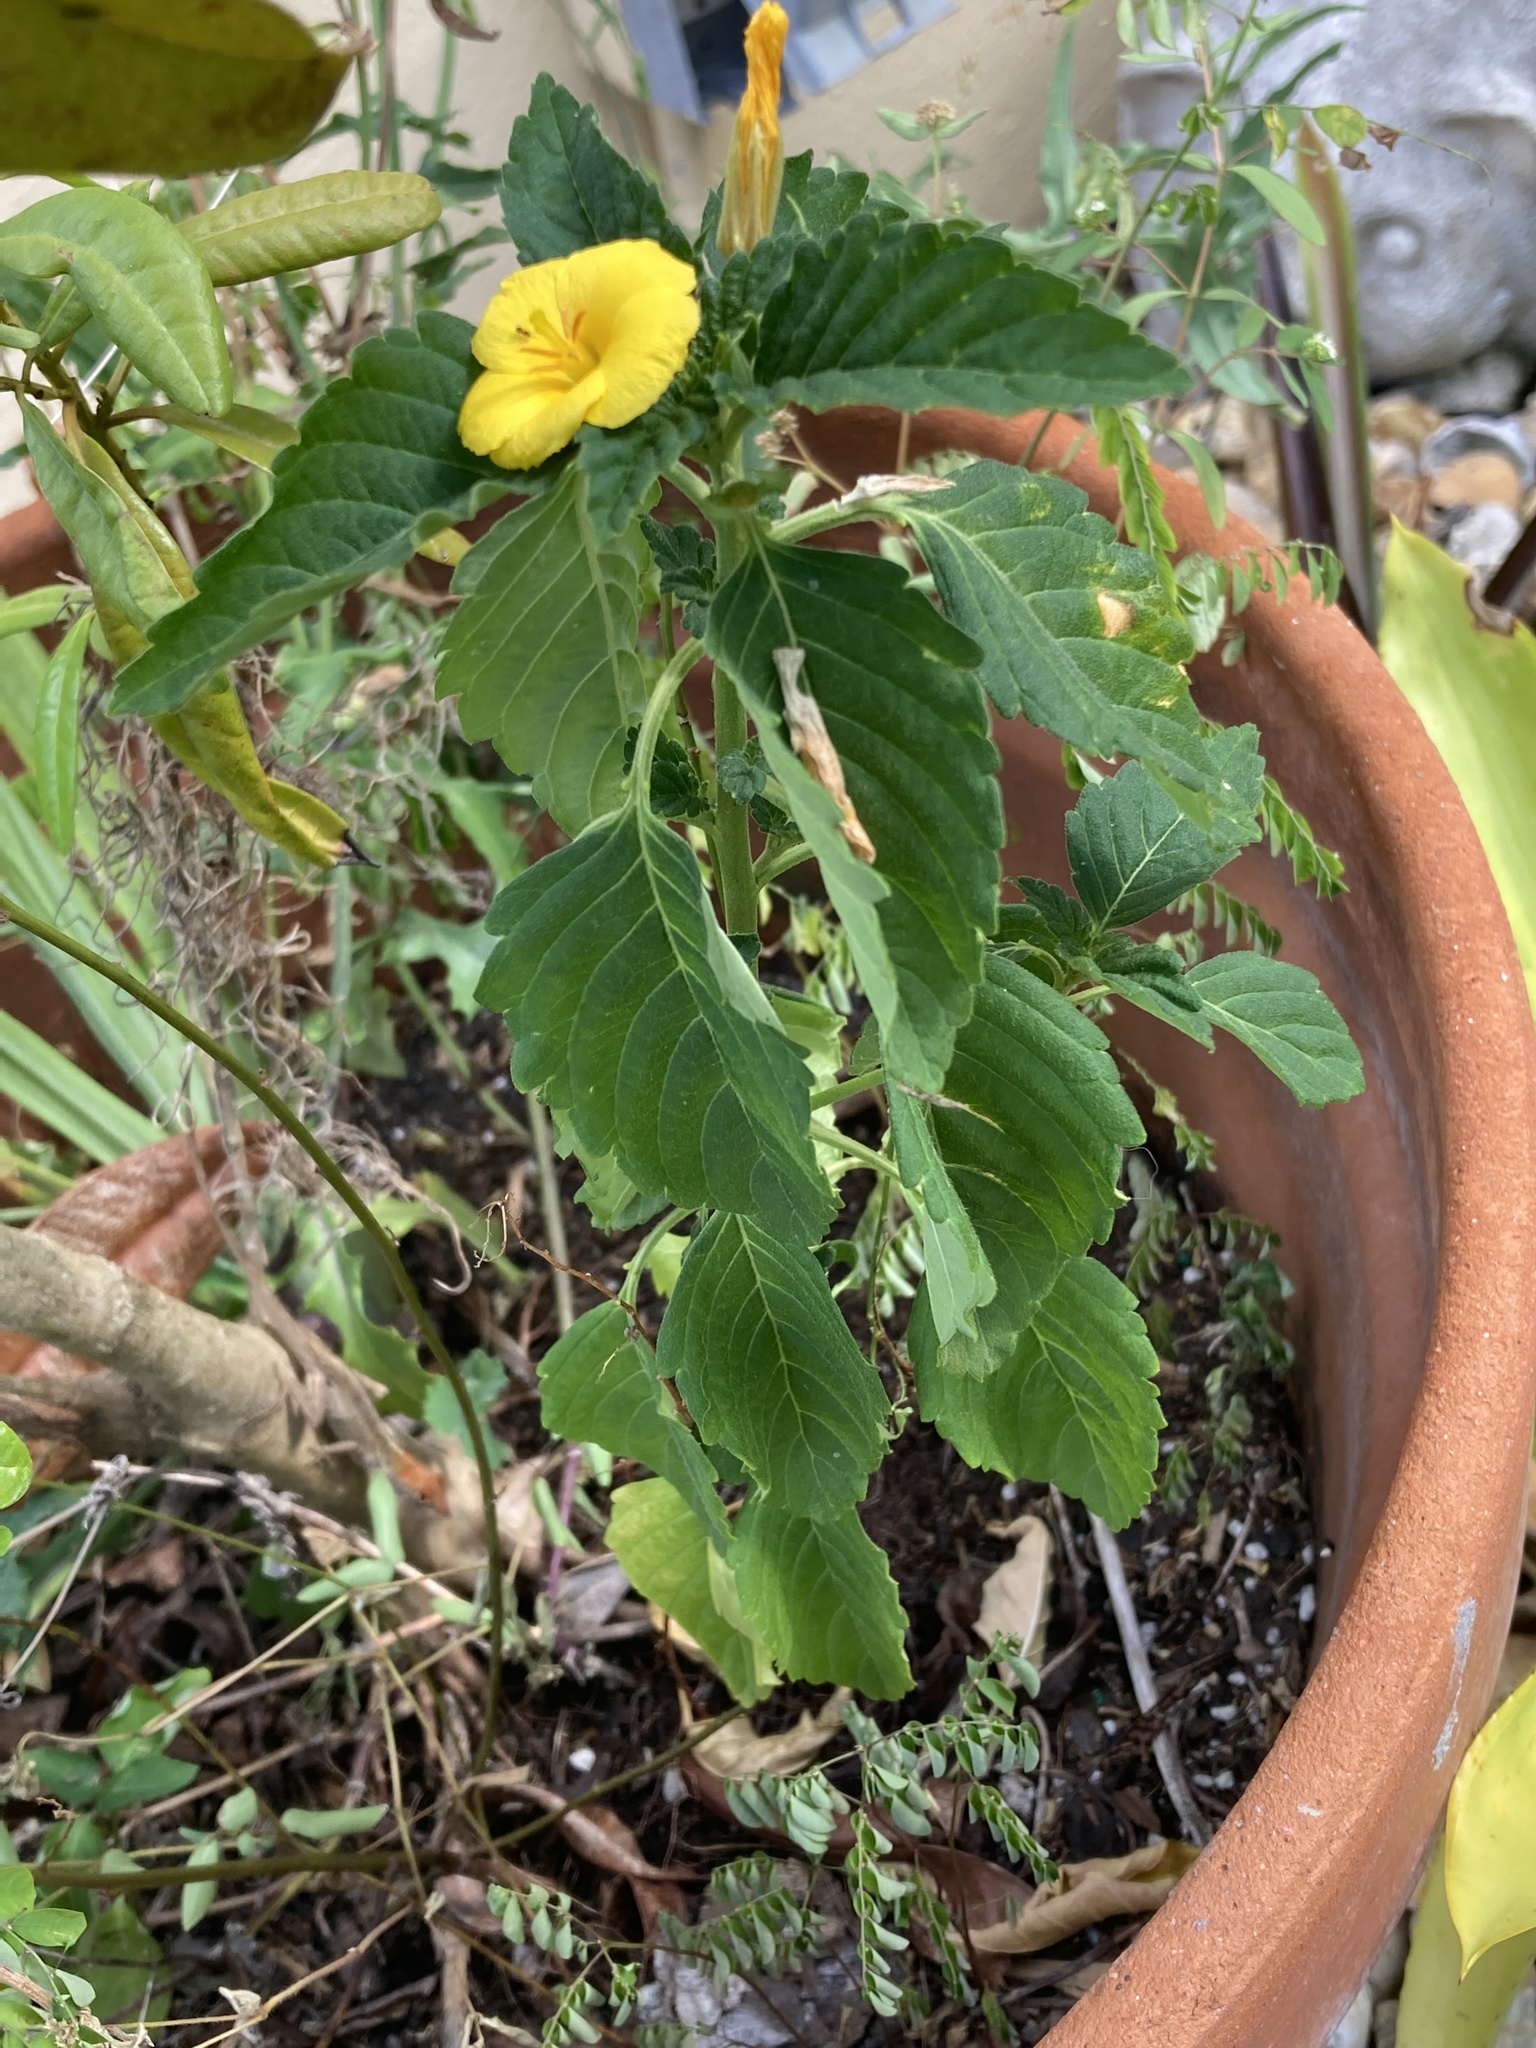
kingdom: Plantae
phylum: Tracheophyta
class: Magnoliopsida
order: Malpighiales
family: Turneraceae
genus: Turnera
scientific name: Turnera ulmifolia
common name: Ramgoat dashalong
